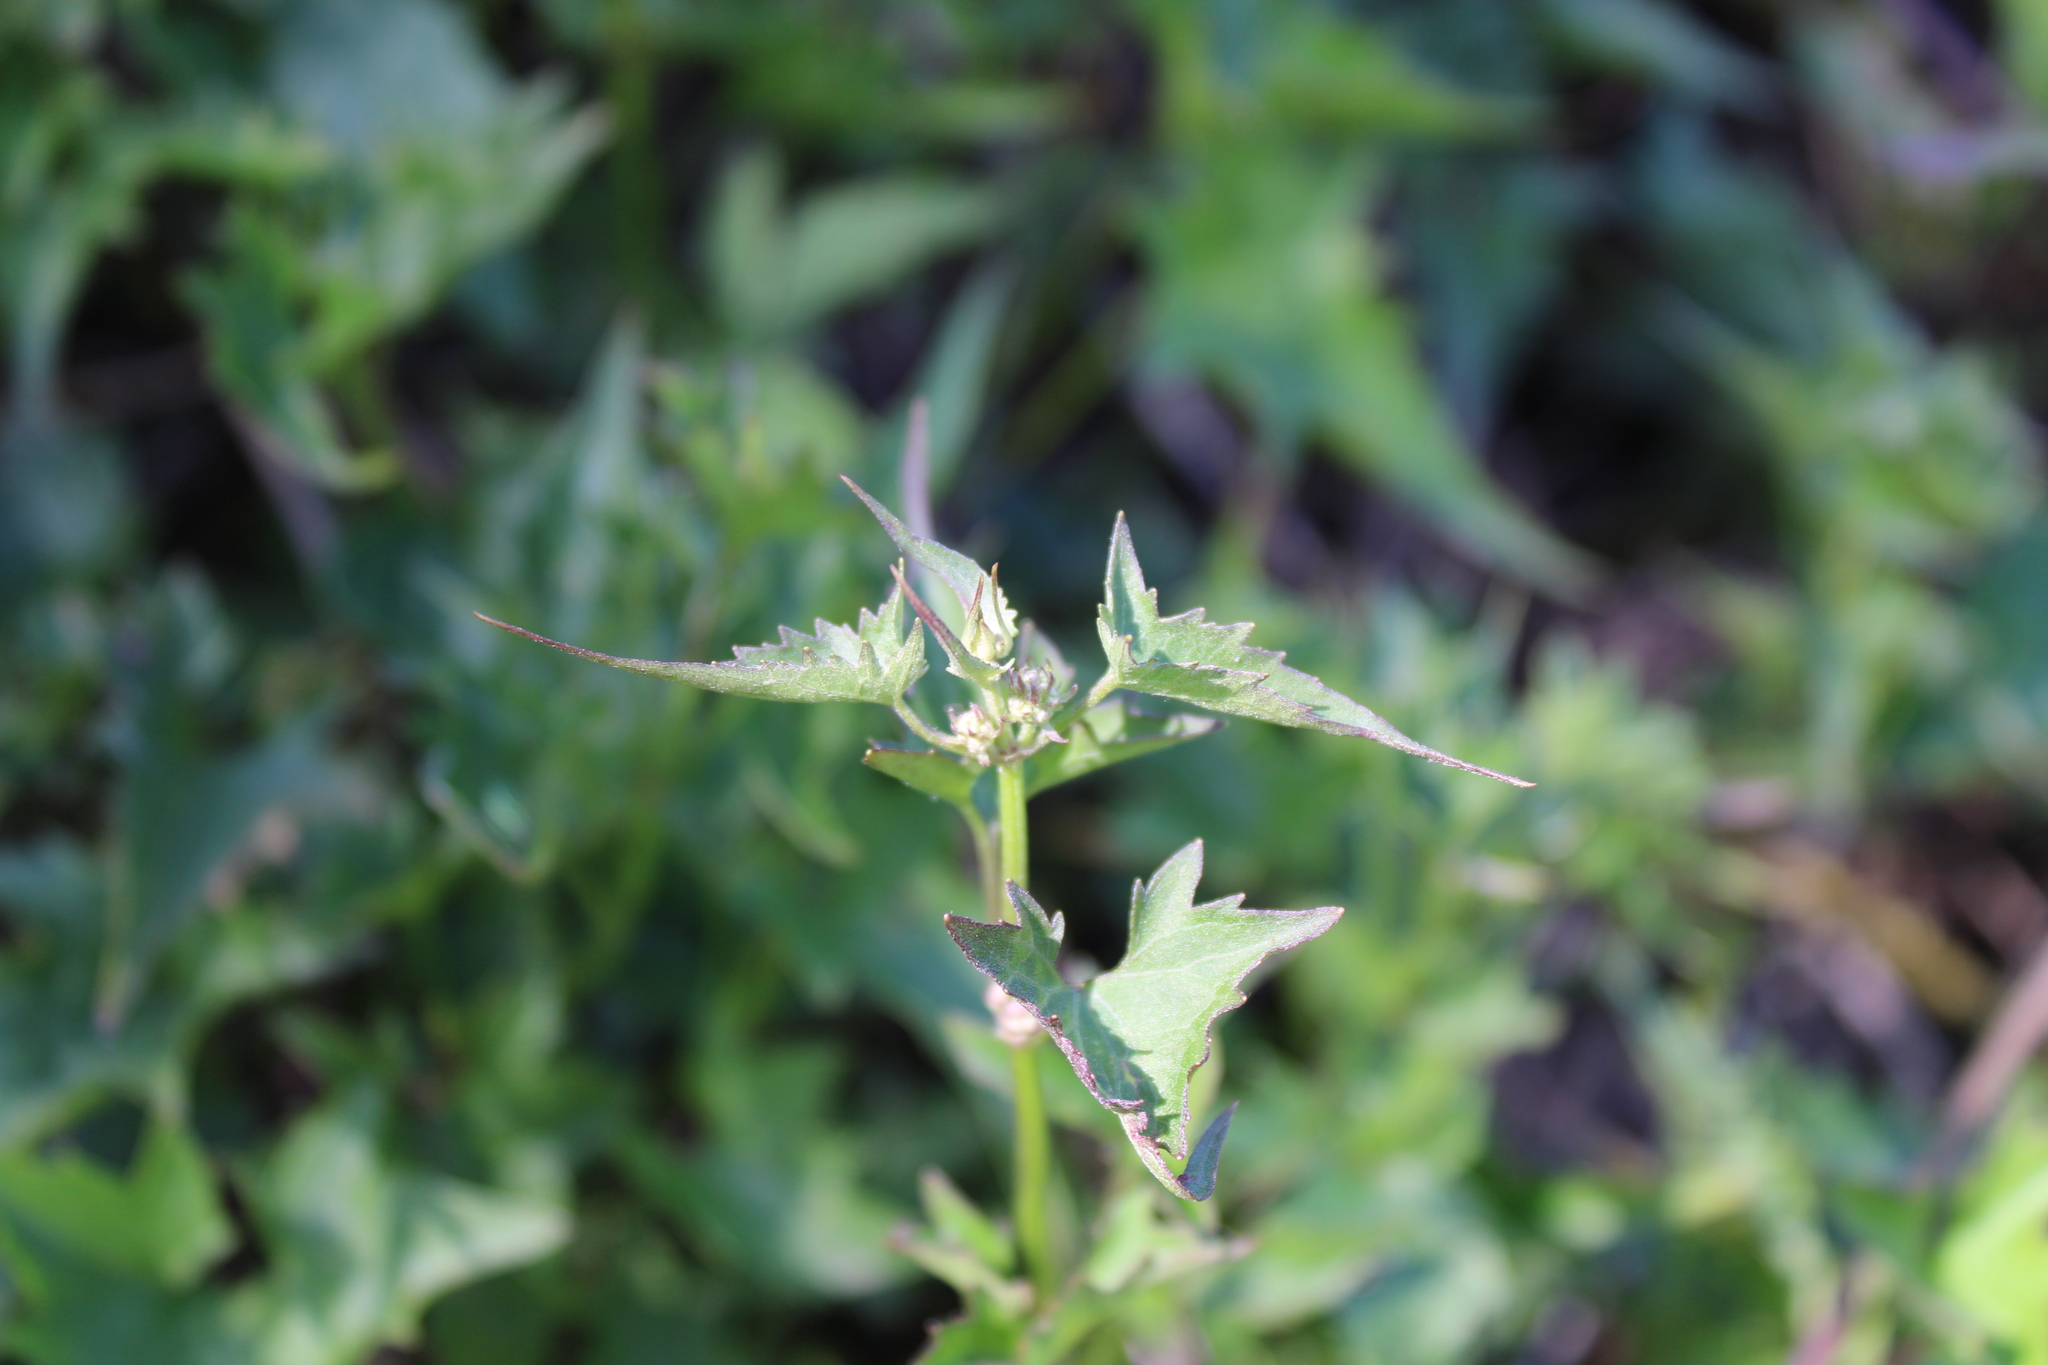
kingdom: Plantae
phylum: Tracheophyta
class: Magnoliopsida
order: Asterales
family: Asteraceae
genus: Mikania
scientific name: Mikania periplocifolia
